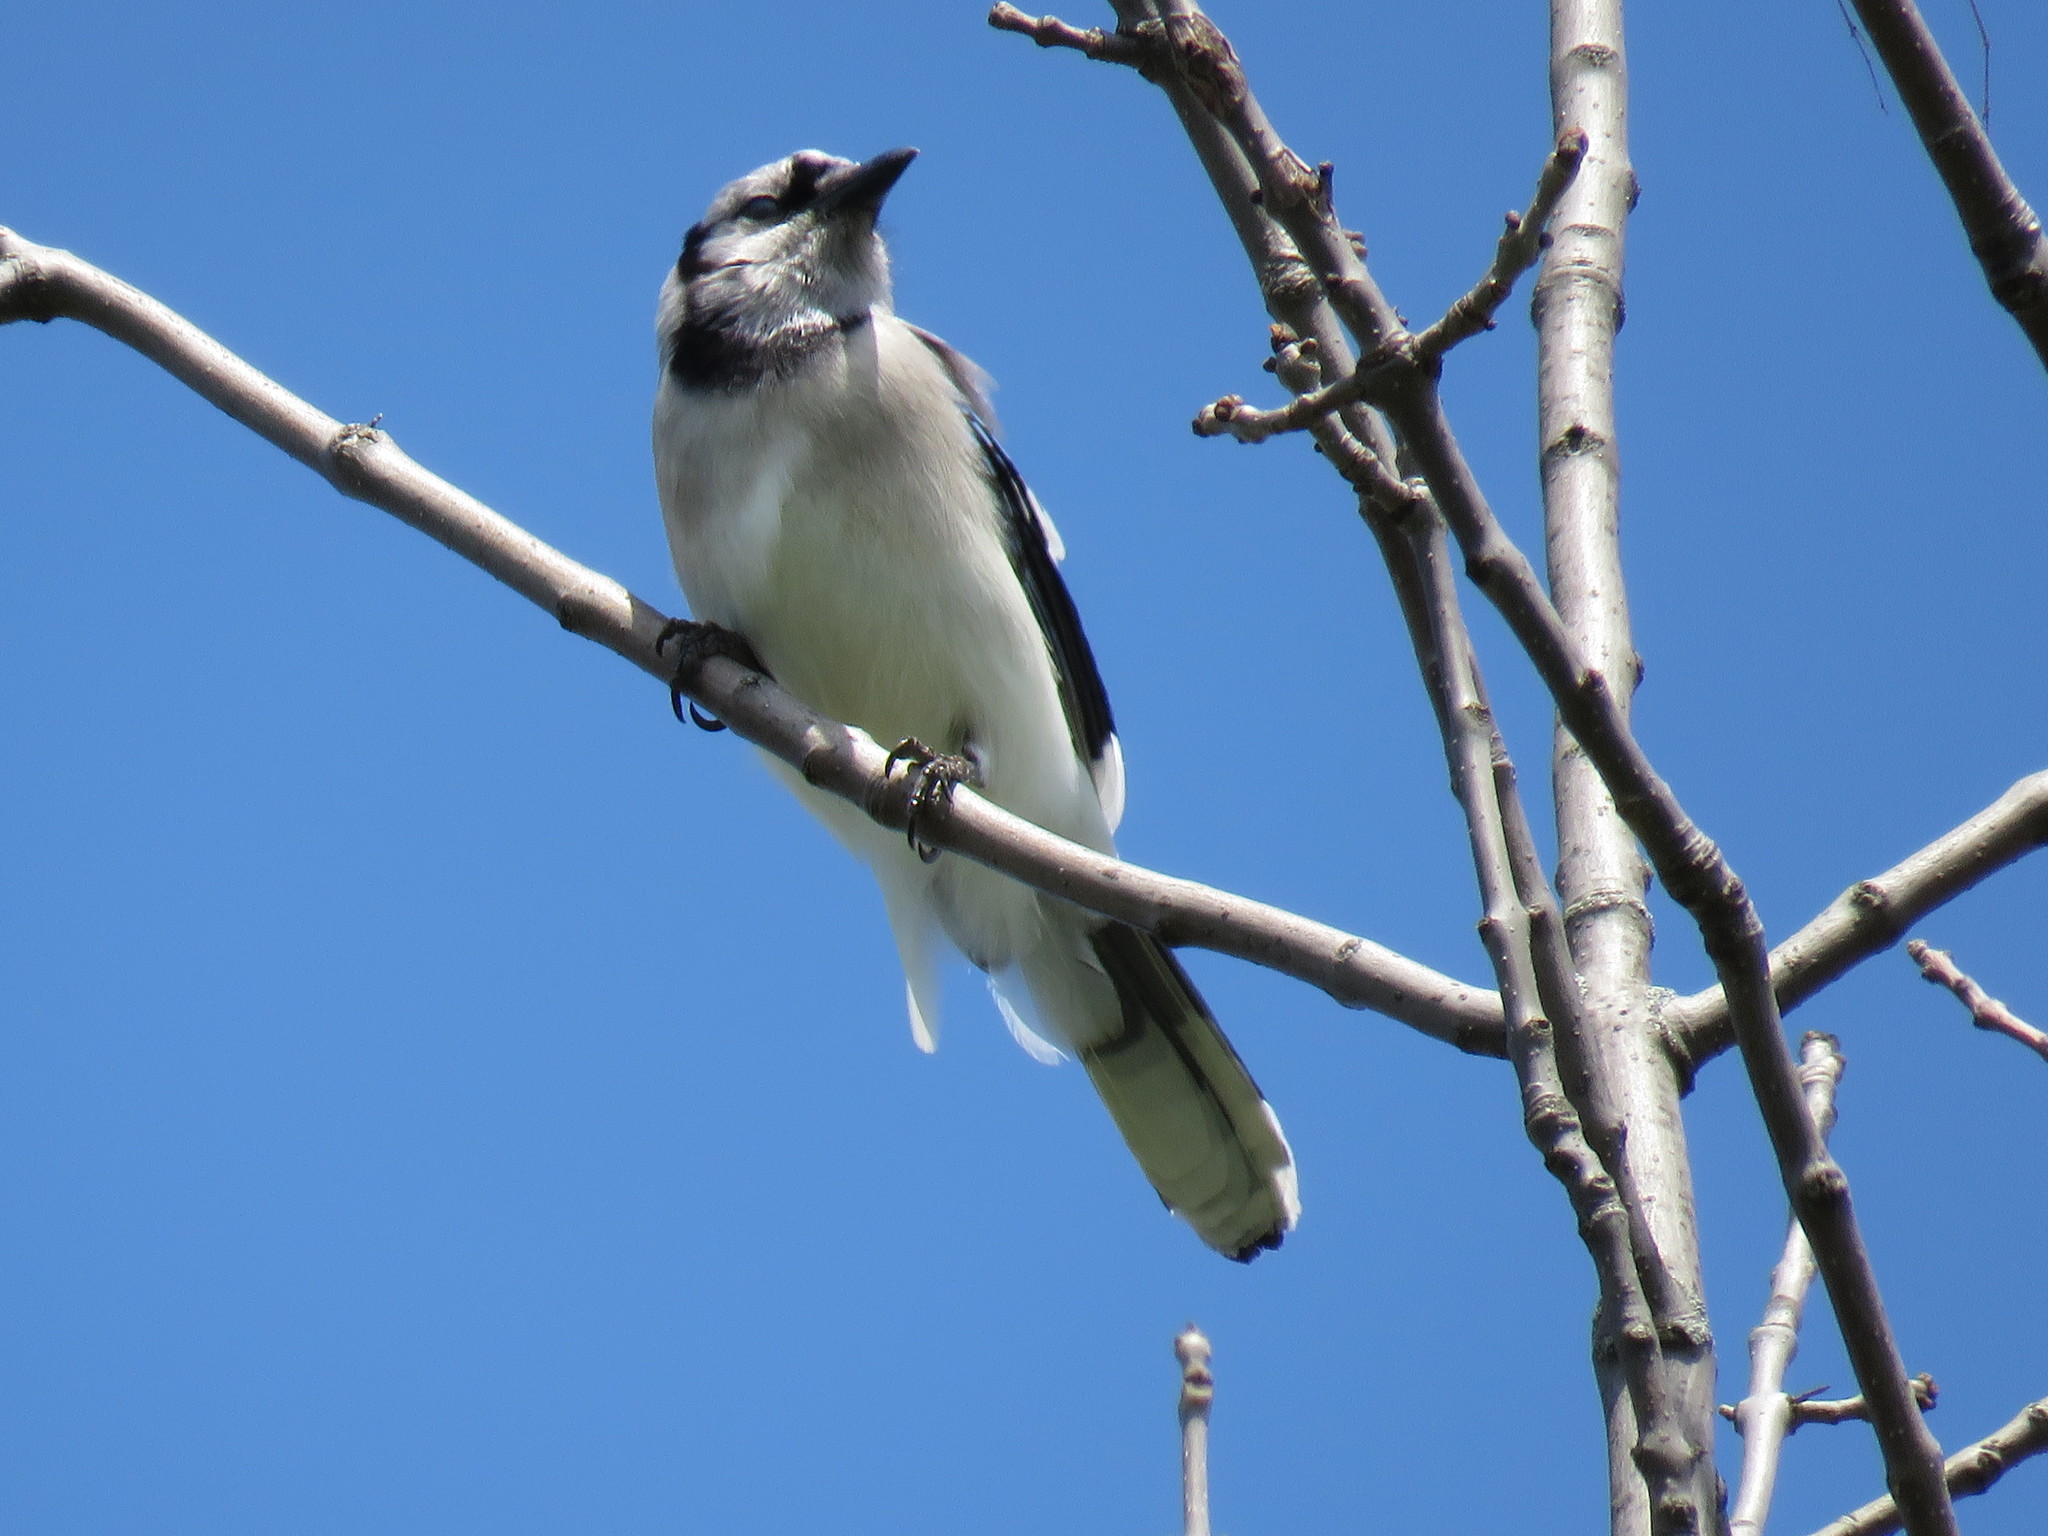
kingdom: Animalia
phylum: Chordata
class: Aves
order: Passeriformes
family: Corvidae
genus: Cyanocitta
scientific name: Cyanocitta cristata
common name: Blue jay
